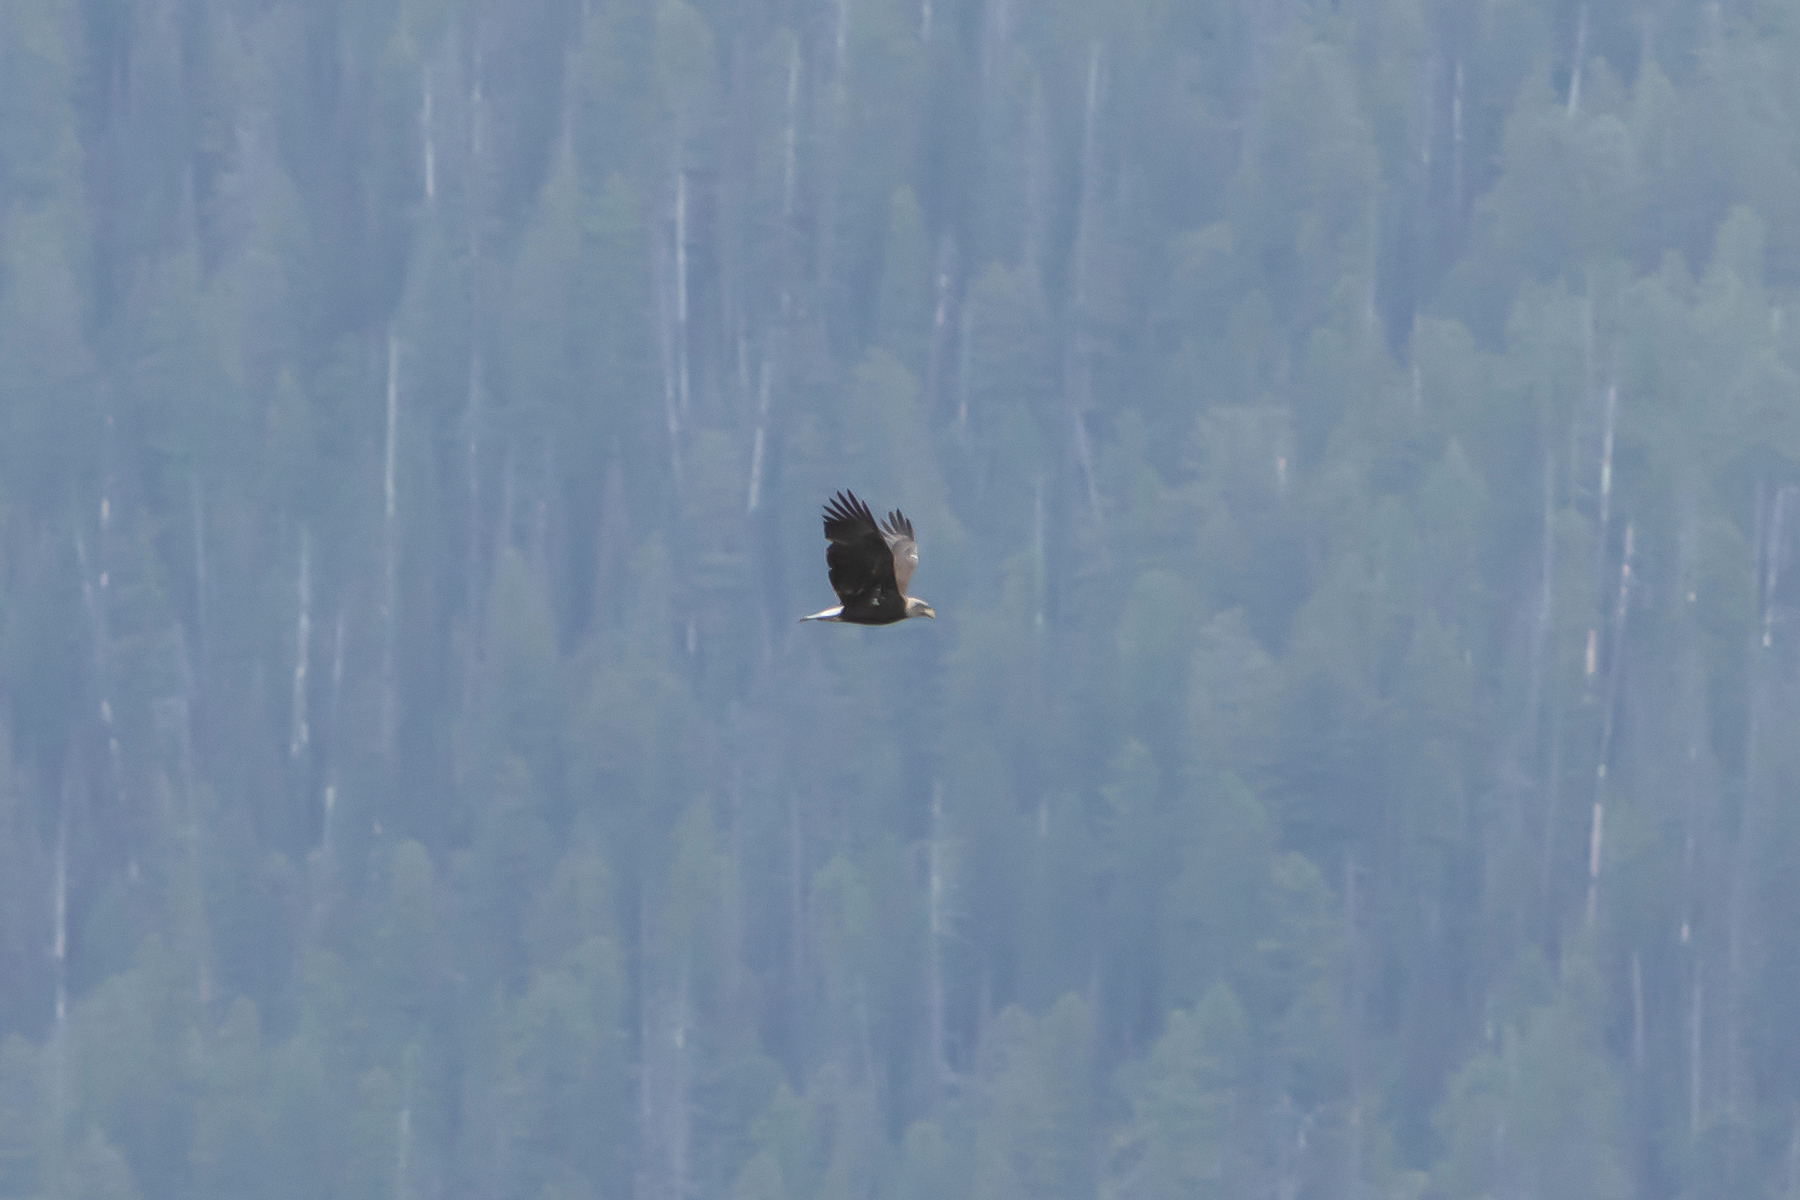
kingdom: Animalia
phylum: Chordata
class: Aves
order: Accipitriformes
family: Accipitridae
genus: Haliaeetus
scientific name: Haliaeetus leucocephalus
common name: Bald eagle
